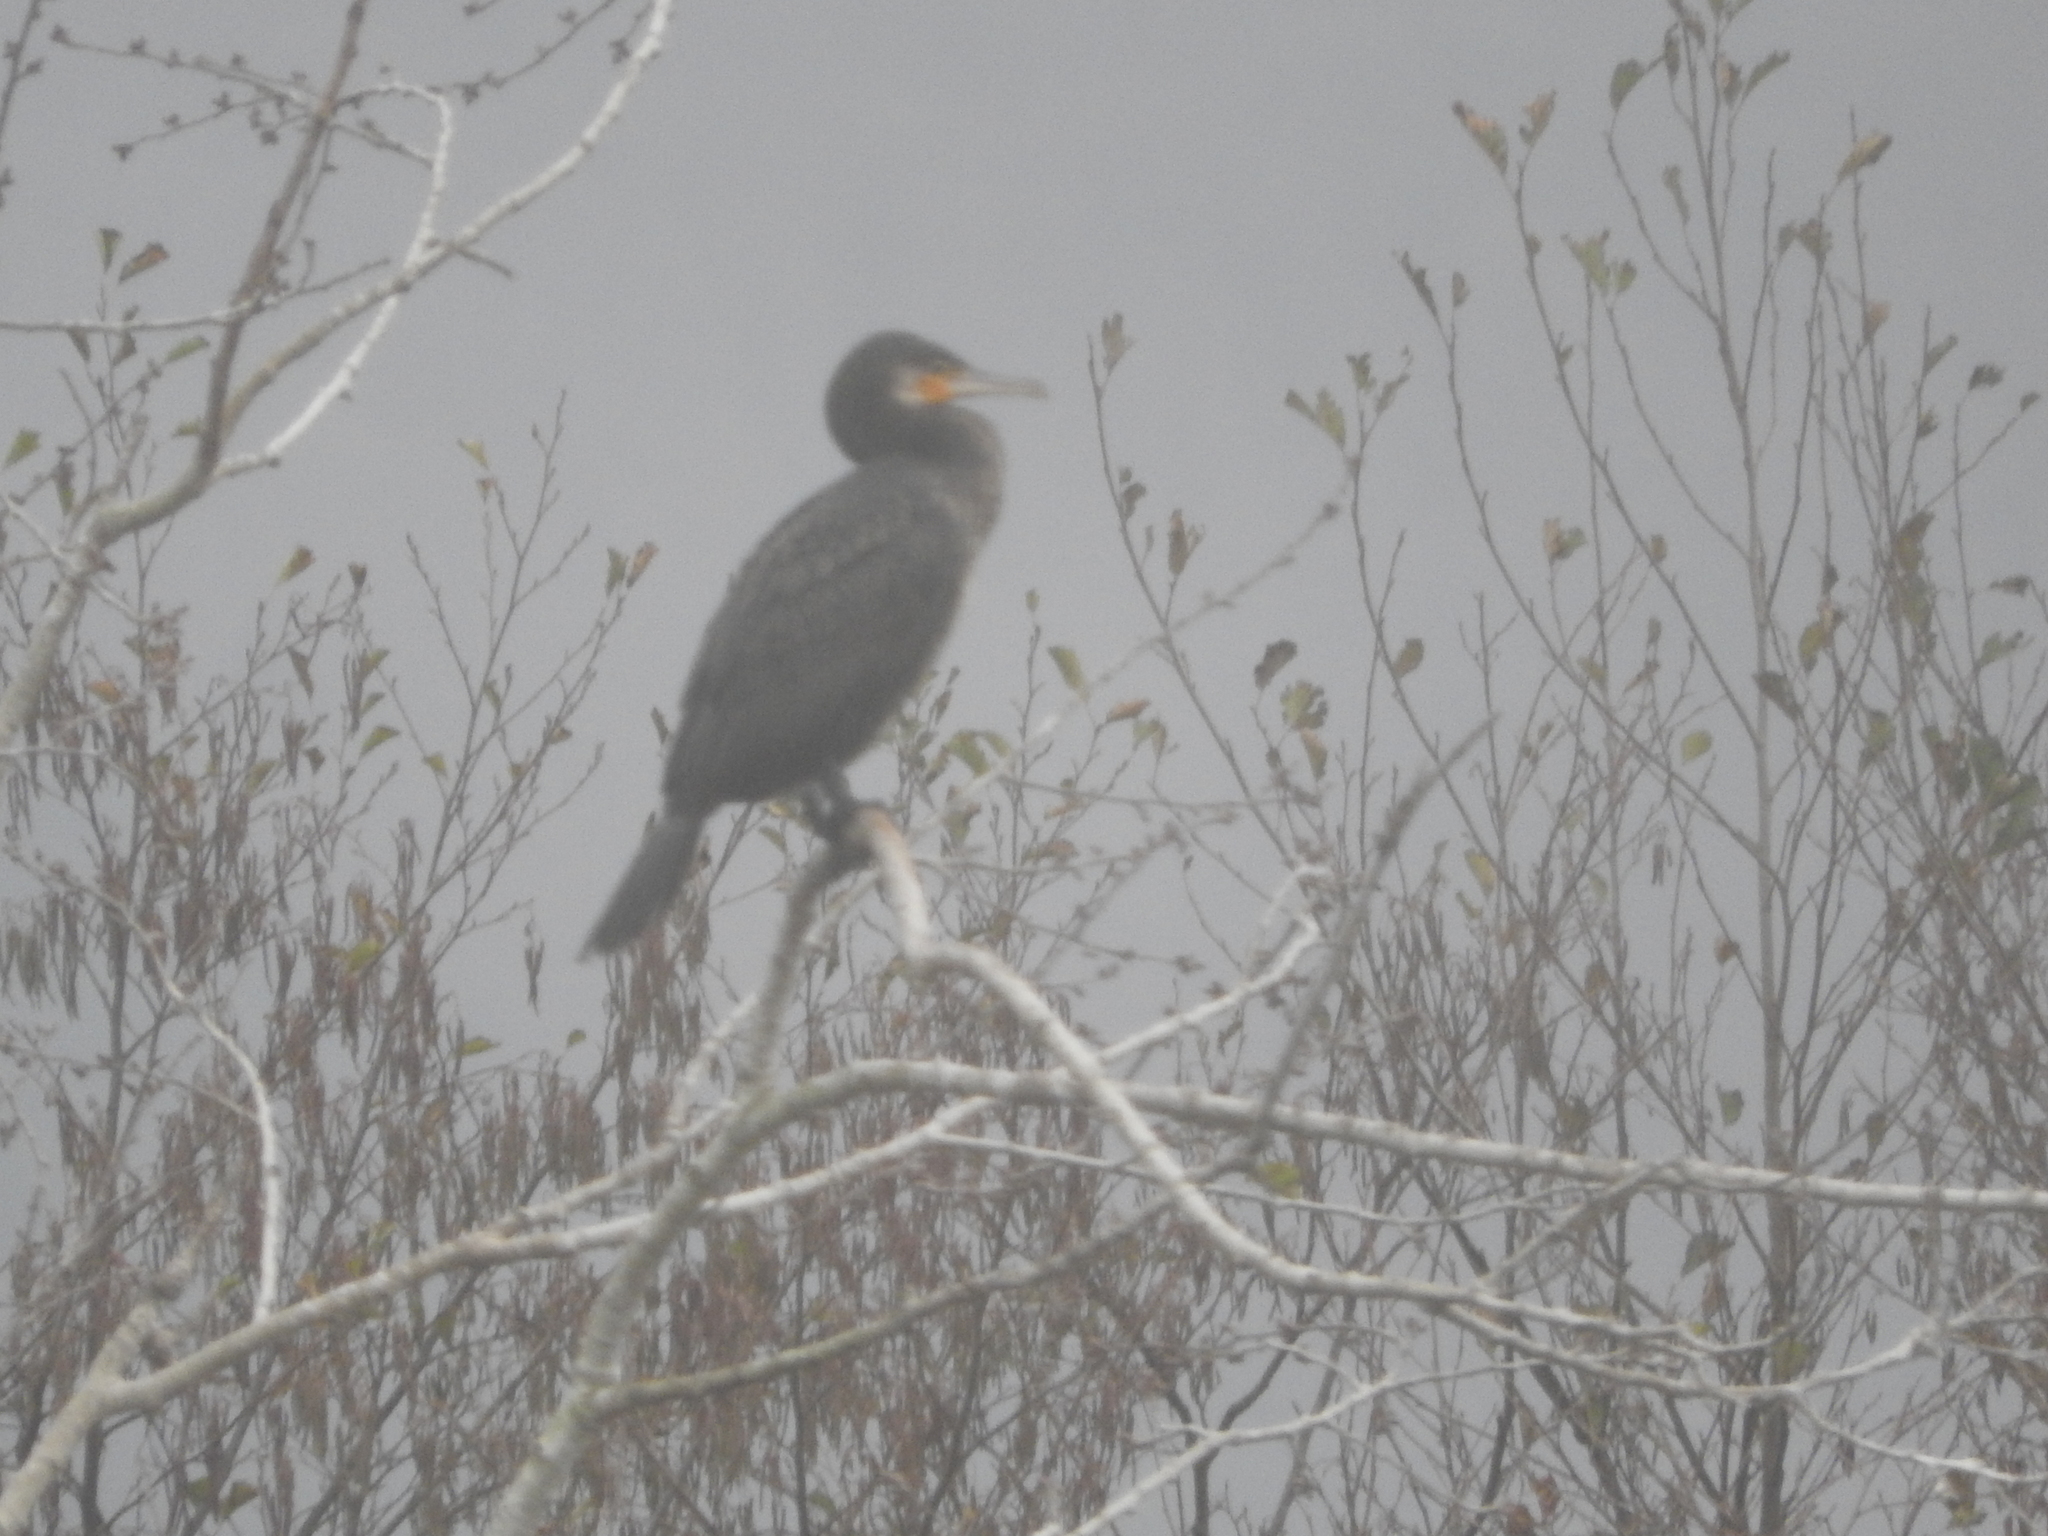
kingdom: Animalia
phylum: Chordata
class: Aves
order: Suliformes
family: Phalacrocoracidae
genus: Phalacrocorax
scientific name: Phalacrocorax carbo
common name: Great cormorant
